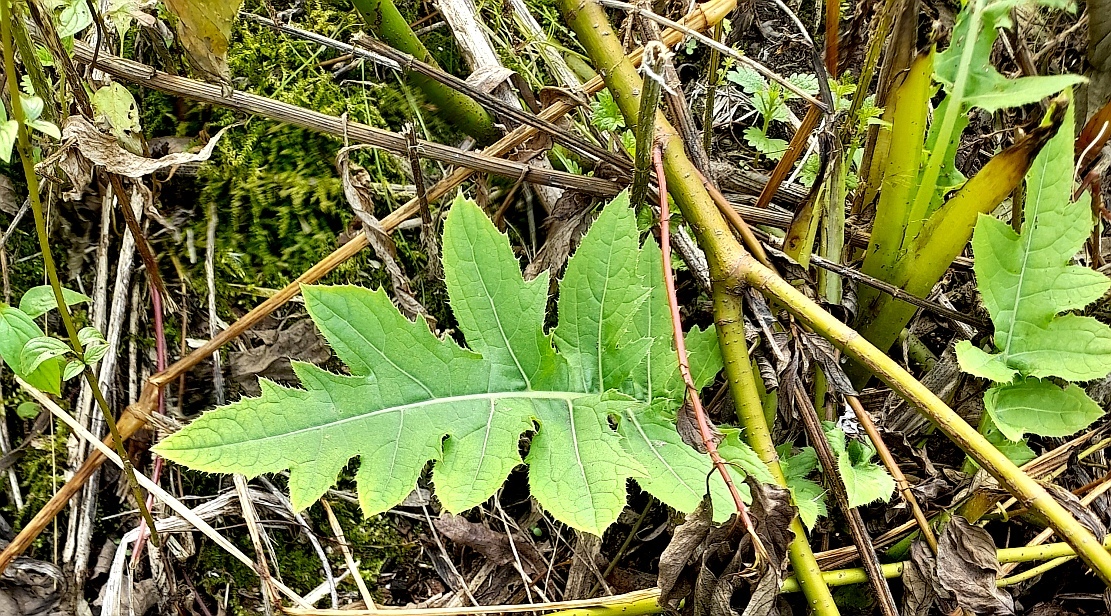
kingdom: Plantae
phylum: Tracheophyta
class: Magnoliopsida
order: Asterales
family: Asteraceae
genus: Cirsium
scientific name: Cirsium oleraceum
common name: Cabbage thistle
